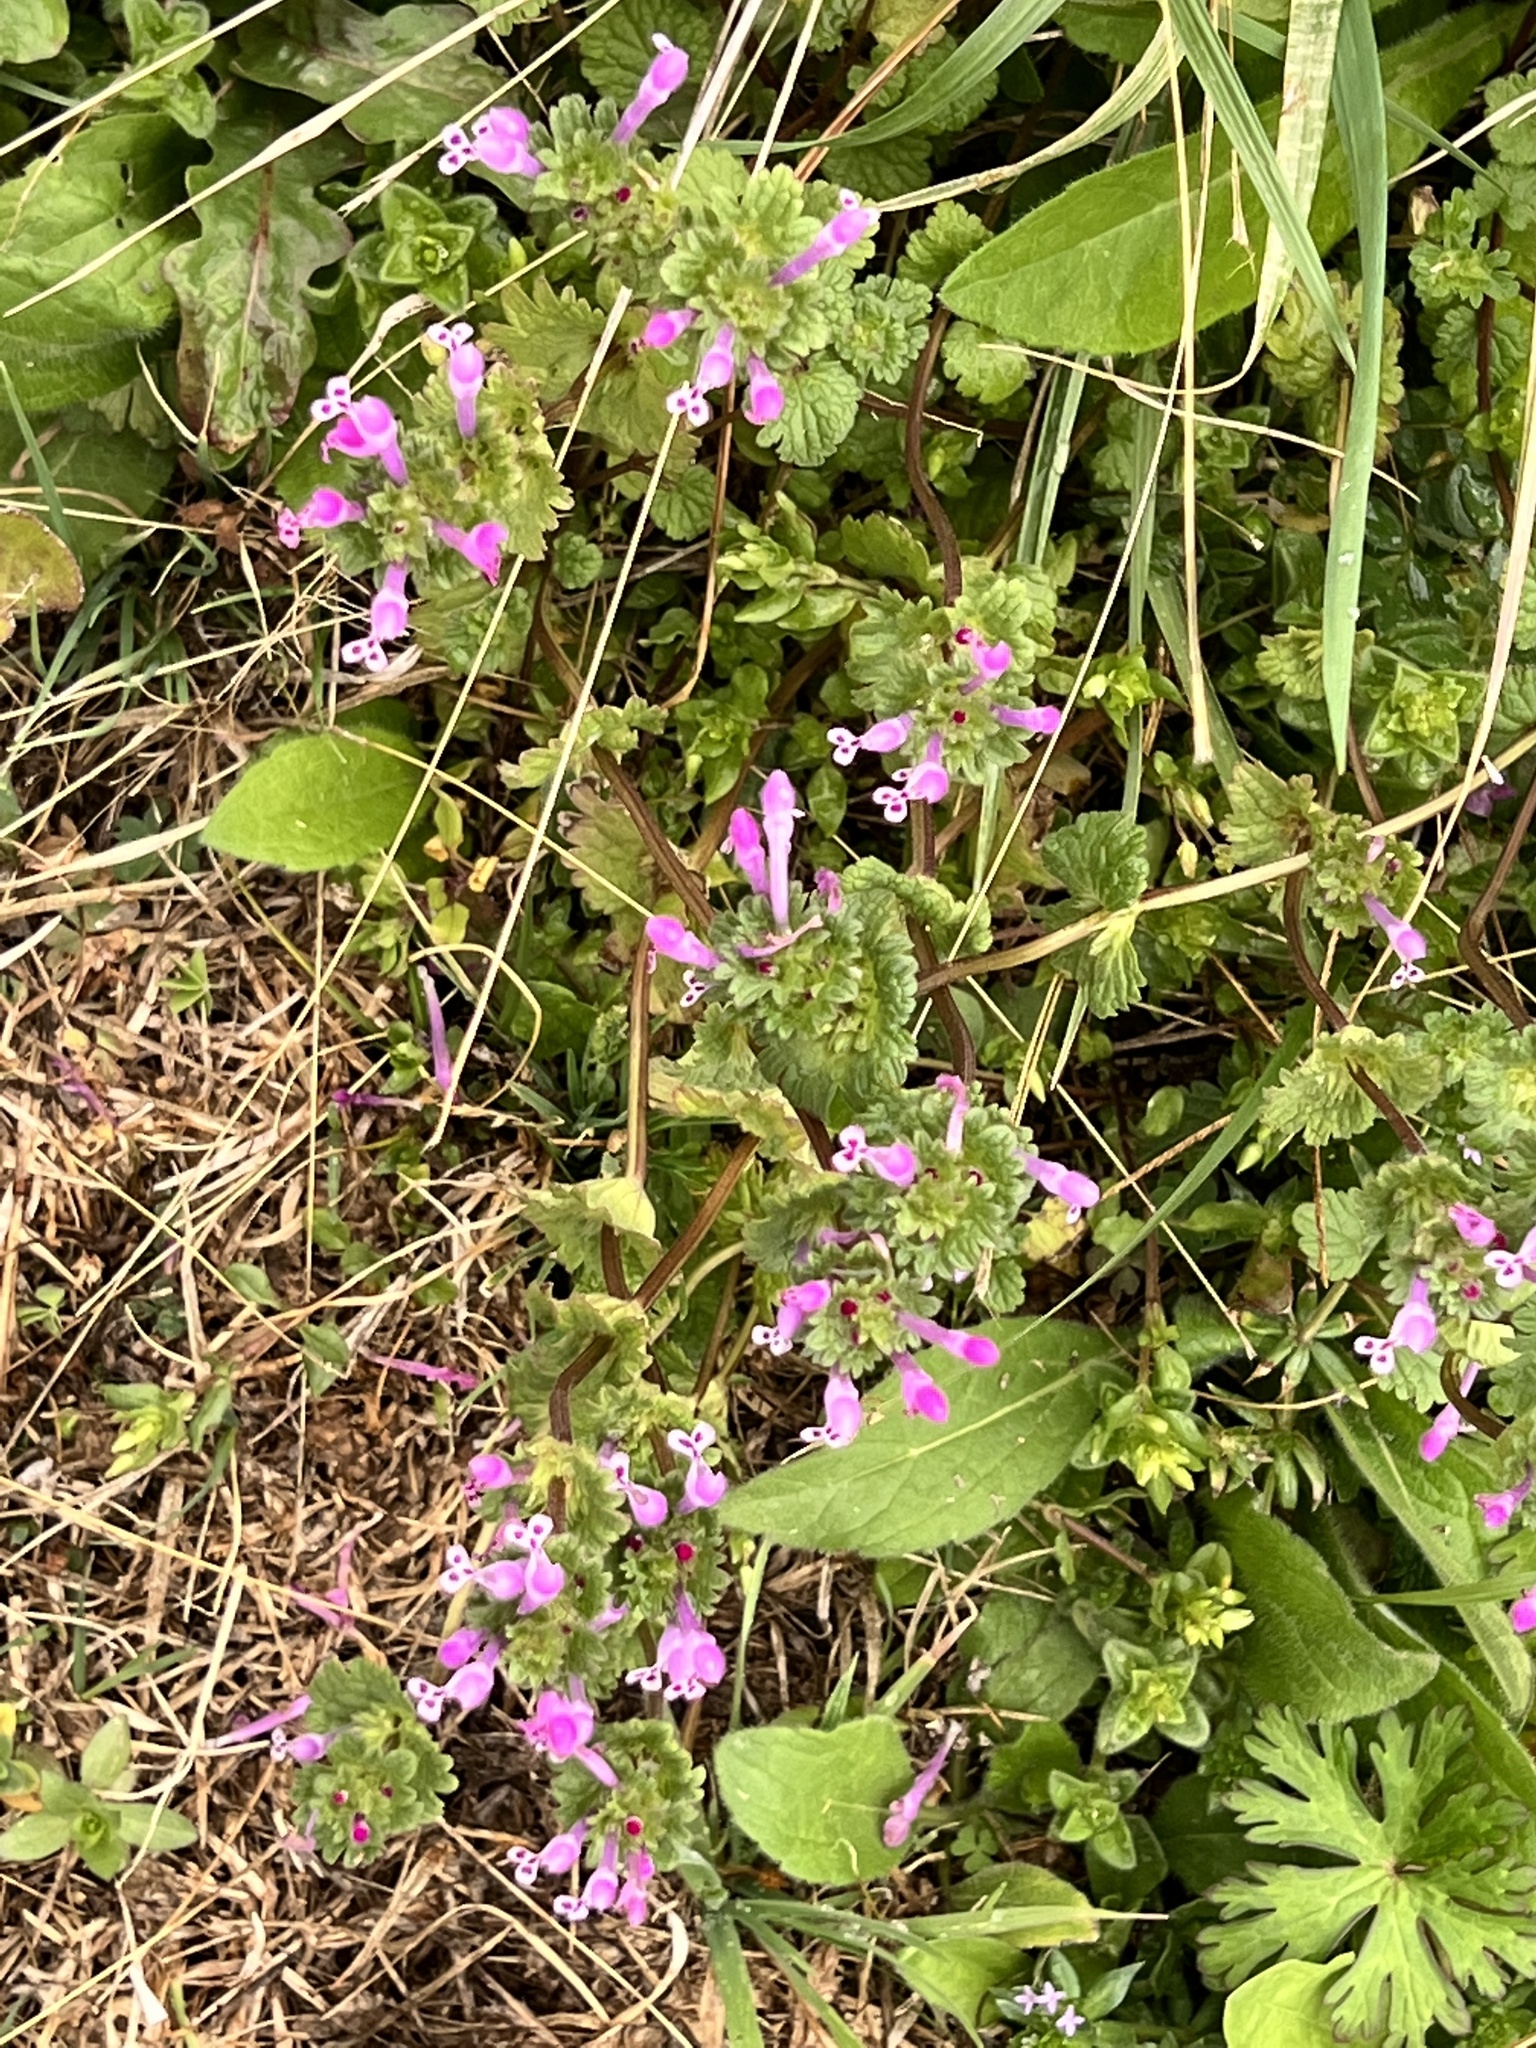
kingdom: Plantae
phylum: Tracheophyta
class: Magnoliopsida
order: Lamiales
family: Lamiaceae
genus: Lamium
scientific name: Lamium amplexicaule
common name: Henbit dead-nettle
